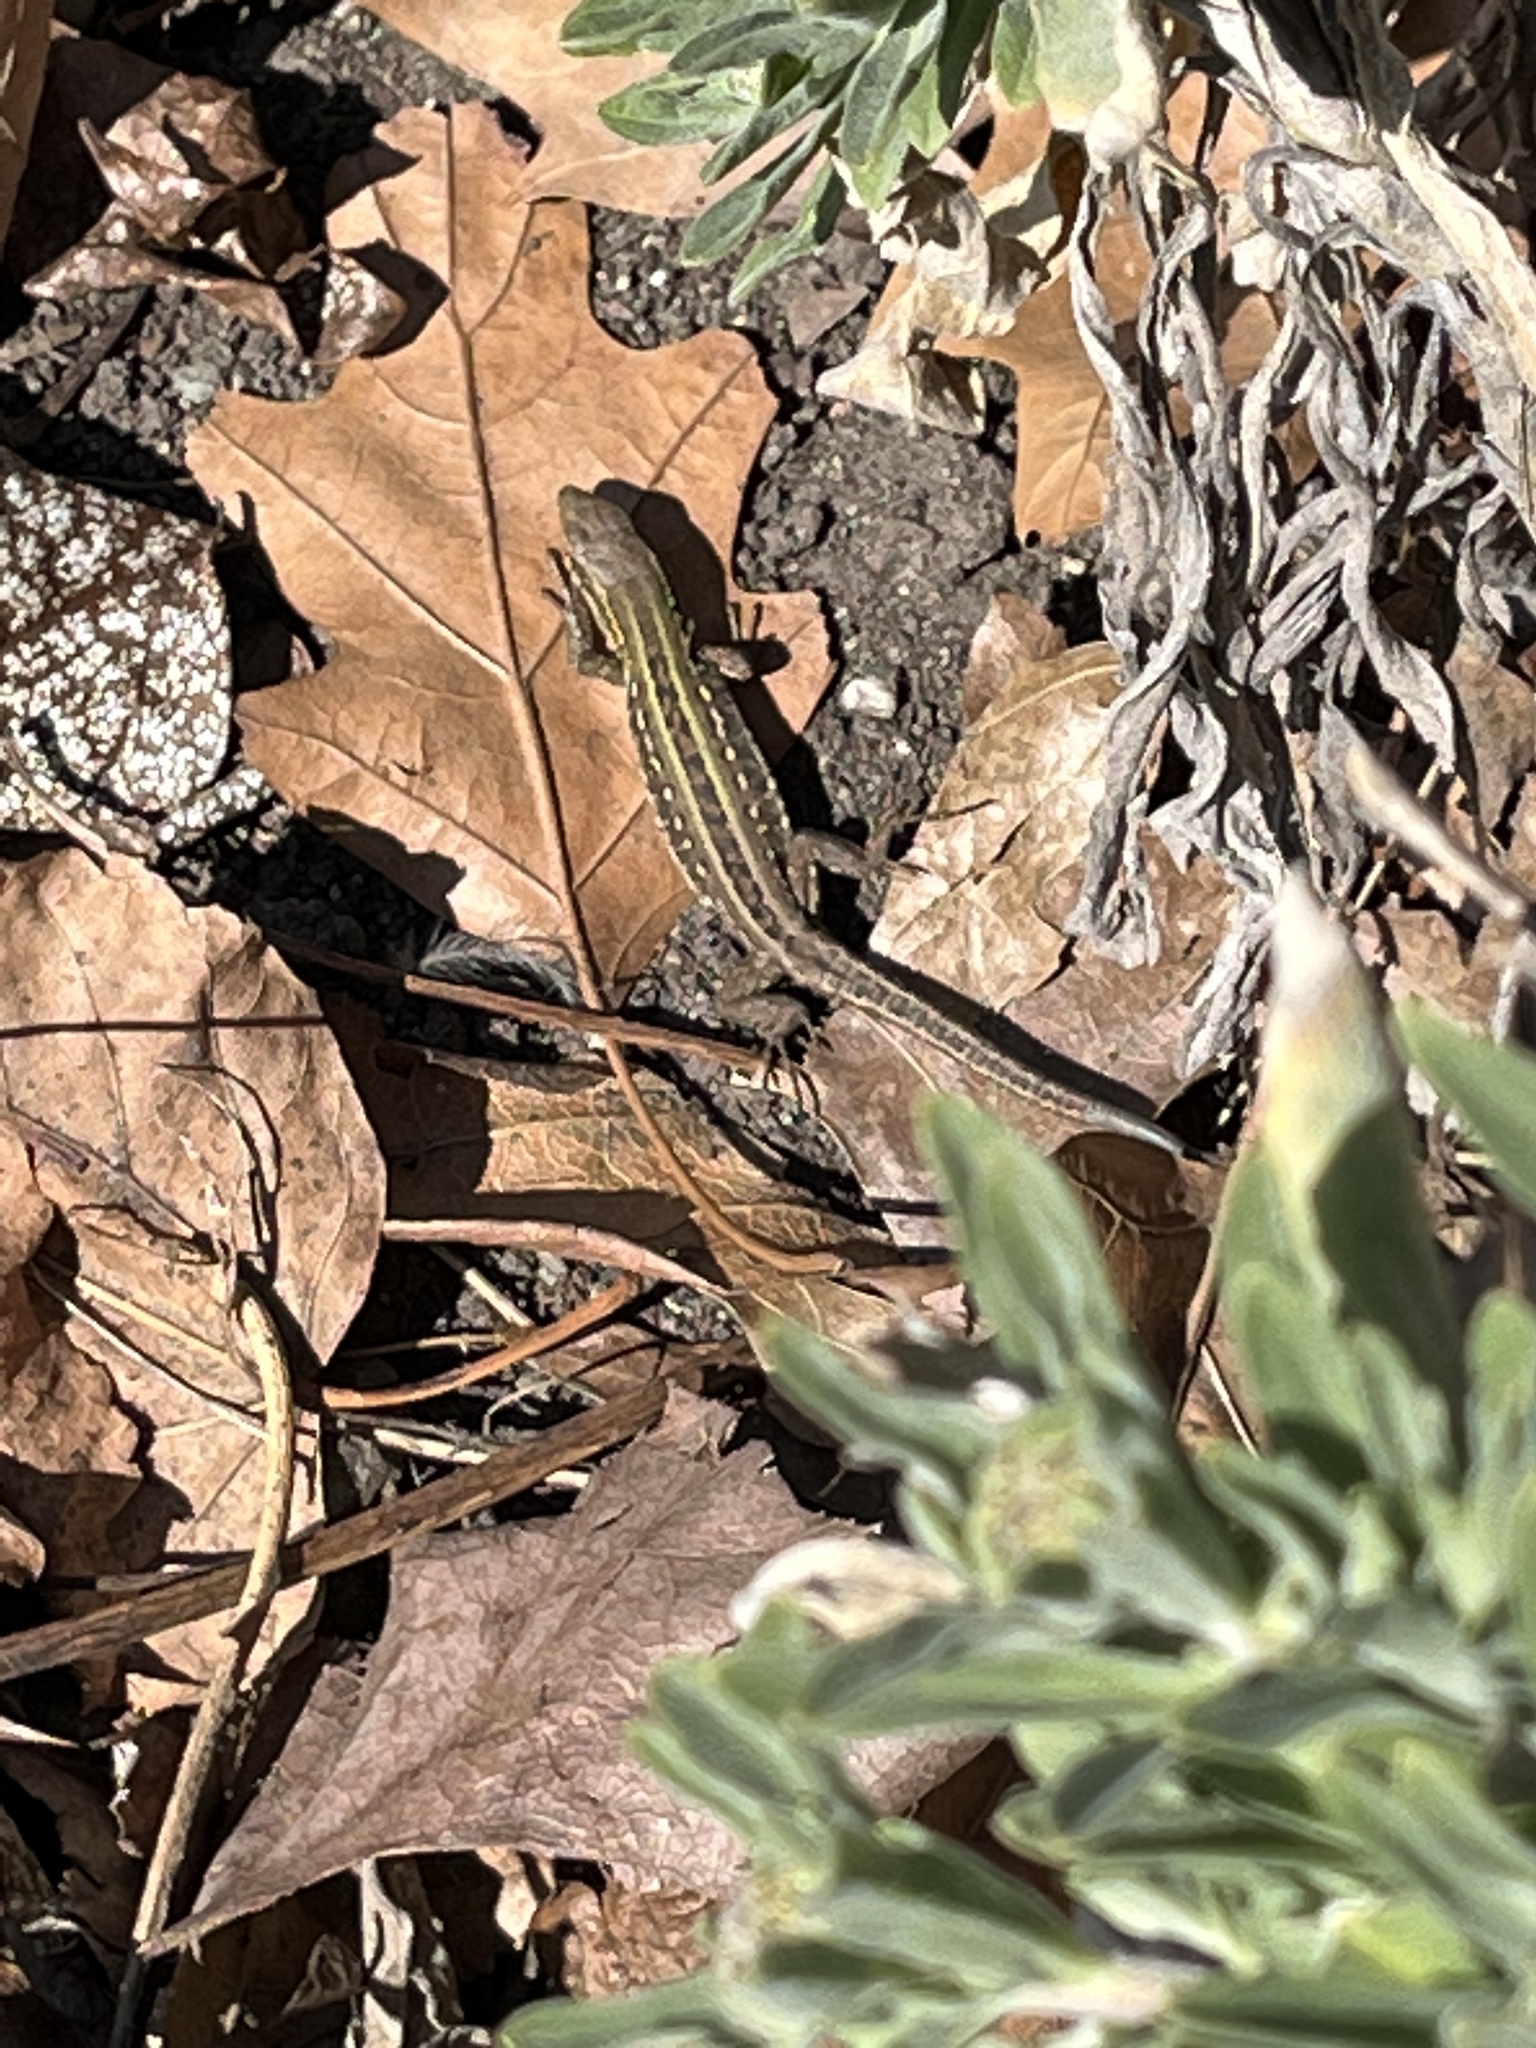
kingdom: Animalia
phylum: Chordata
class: Squamata
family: Lacertidae
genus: Podarcis
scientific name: Podarcis siculus
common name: Italian wall lizard
